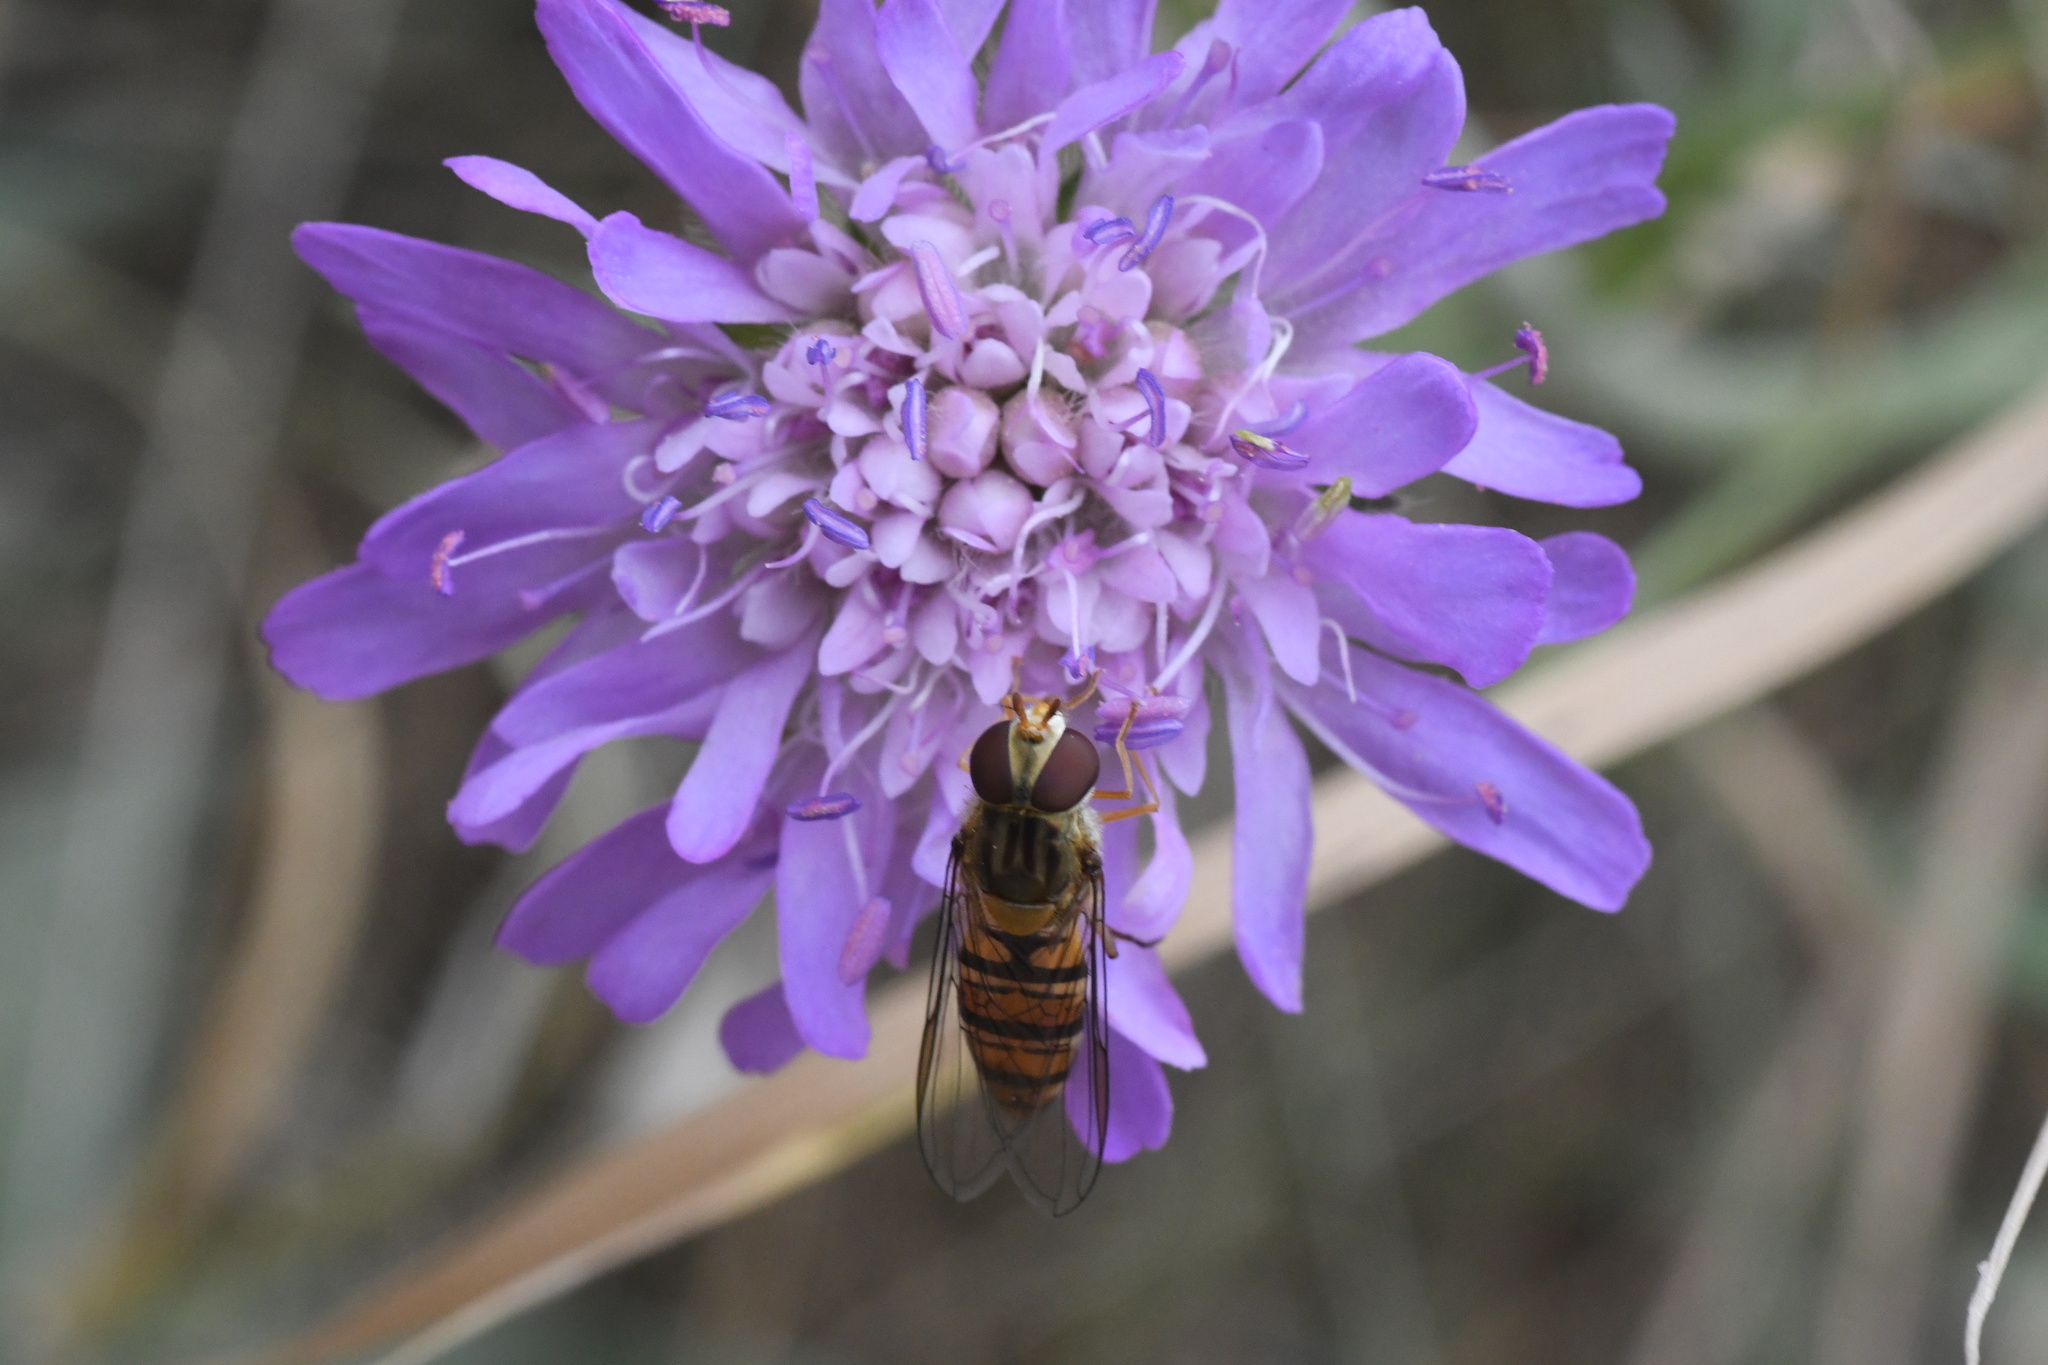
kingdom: Animalia
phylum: Arthropoda
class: Insecta
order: Diptera
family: Syrphidae
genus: Episyrphus
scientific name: Episyrphus balteatus
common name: Marmalade hoverfly
